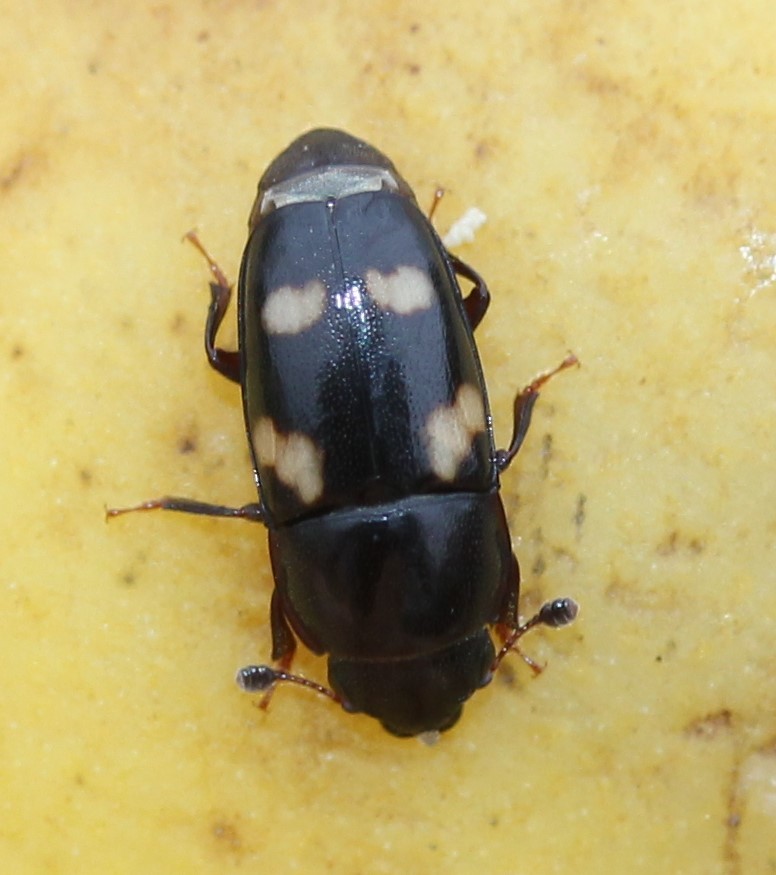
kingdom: Animalia
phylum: Arthropoda
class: Insecta
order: Coleoptera
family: Nitidulidae
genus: Glischrochilus
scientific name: Glischrochilus quadrisignatus
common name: Picnic beetle
